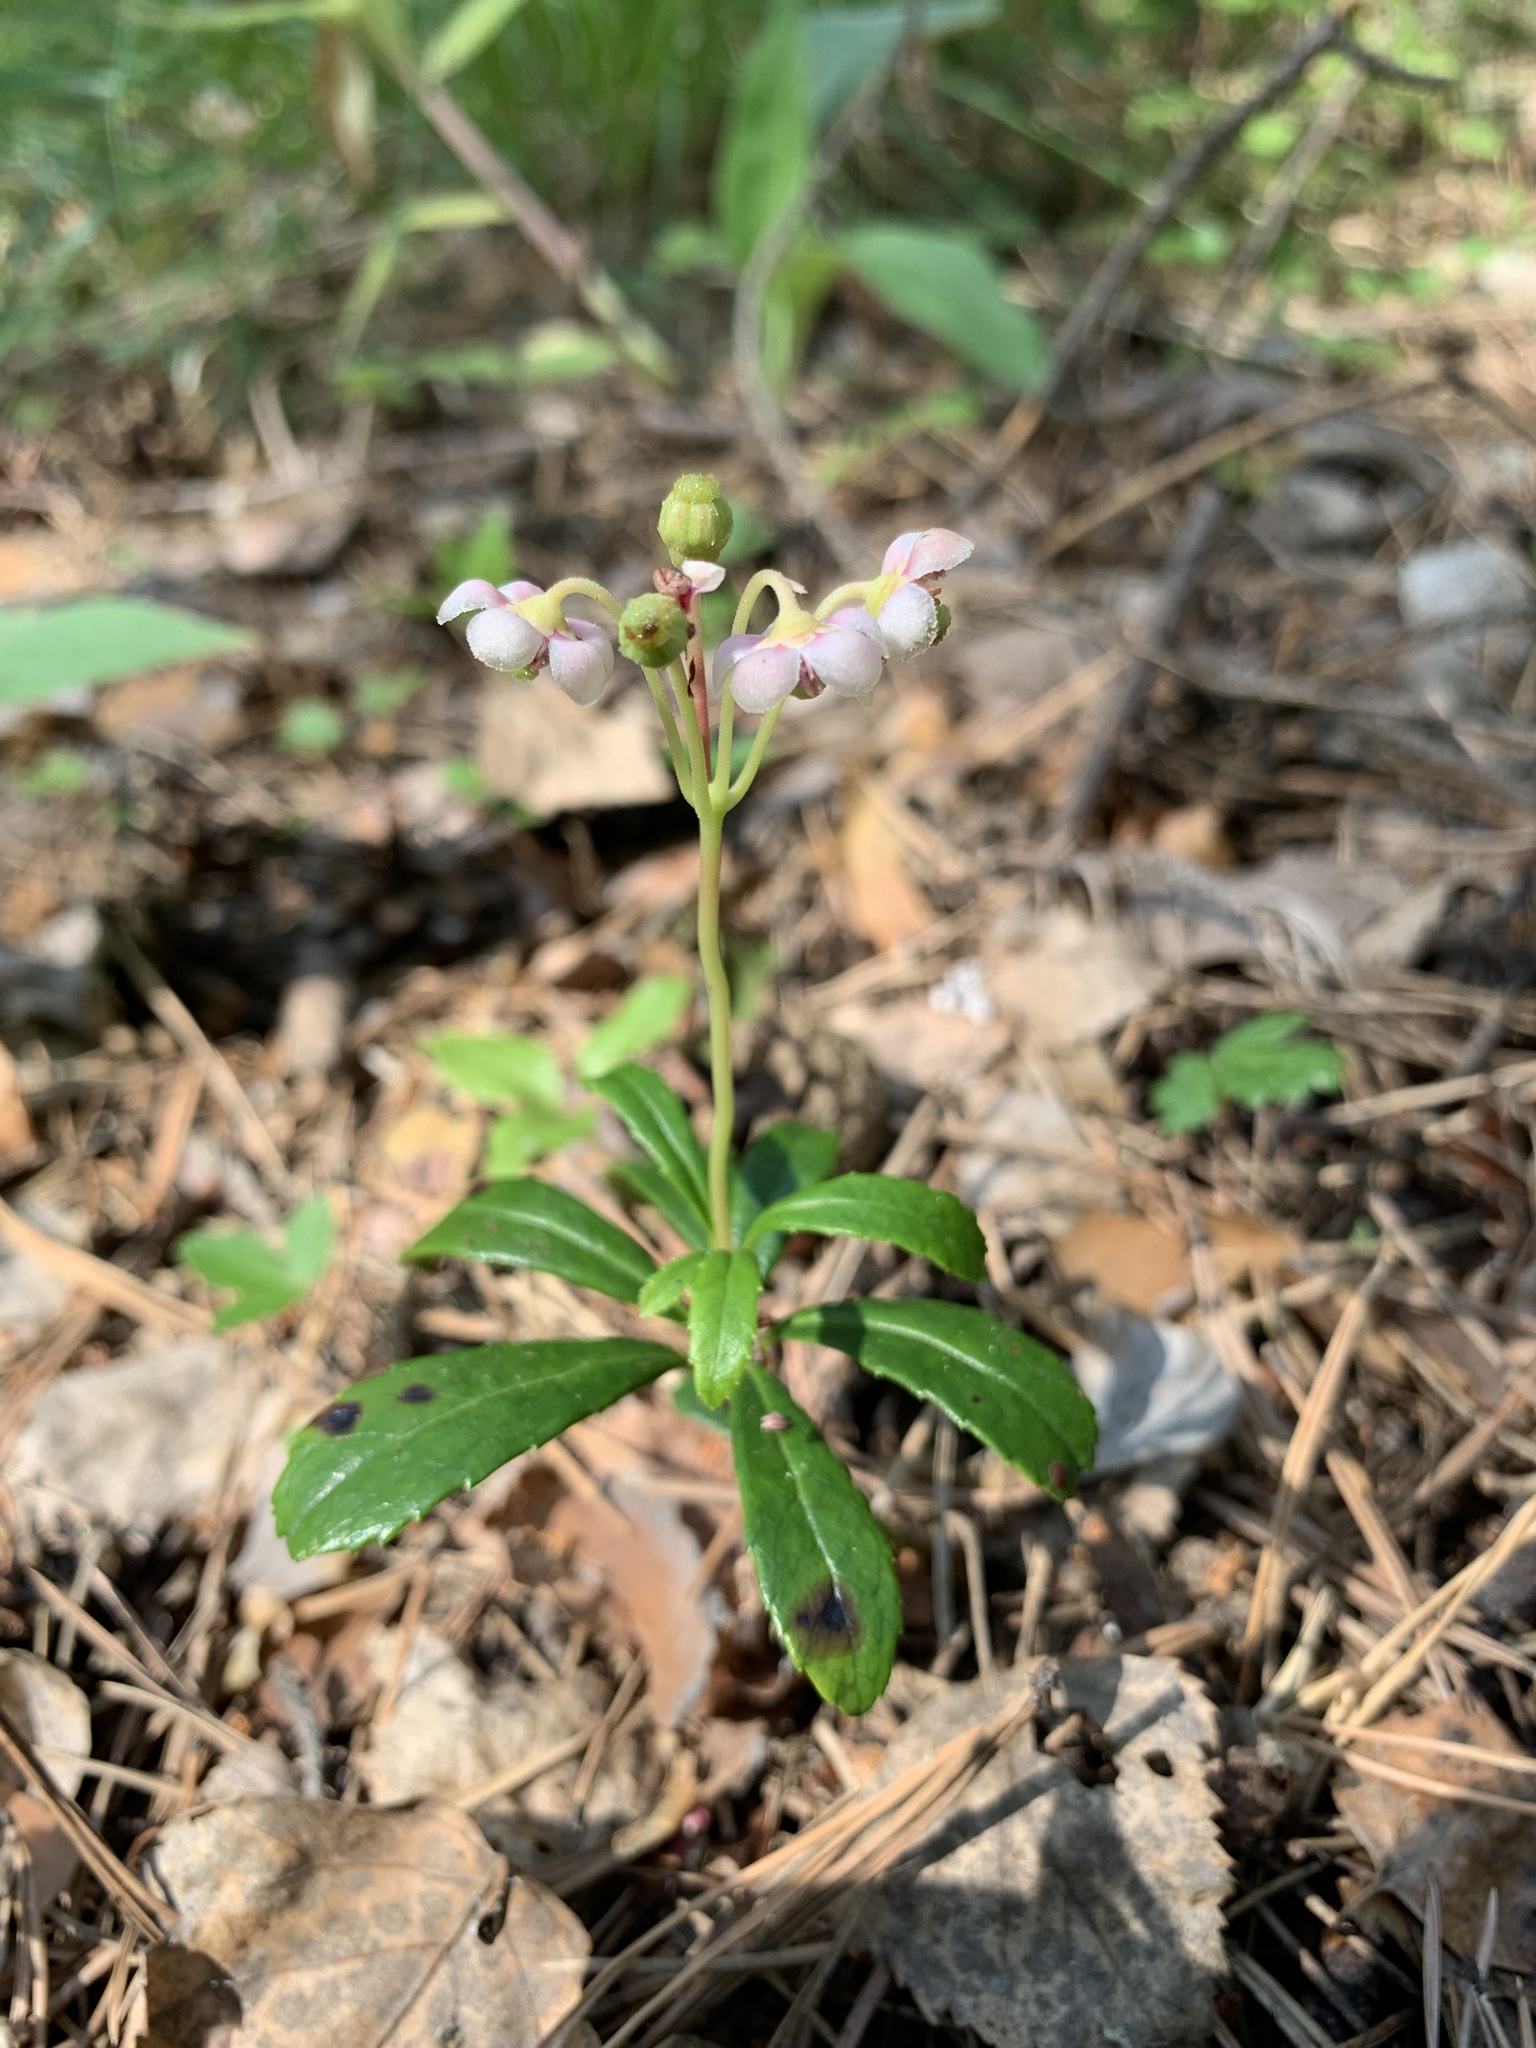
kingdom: Plantae
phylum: Tracheophyta
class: Magnoliopsida
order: Ericales
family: Ericaceae
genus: Chimaphila
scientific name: Chimaphila umbellata
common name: Pipsissewa
